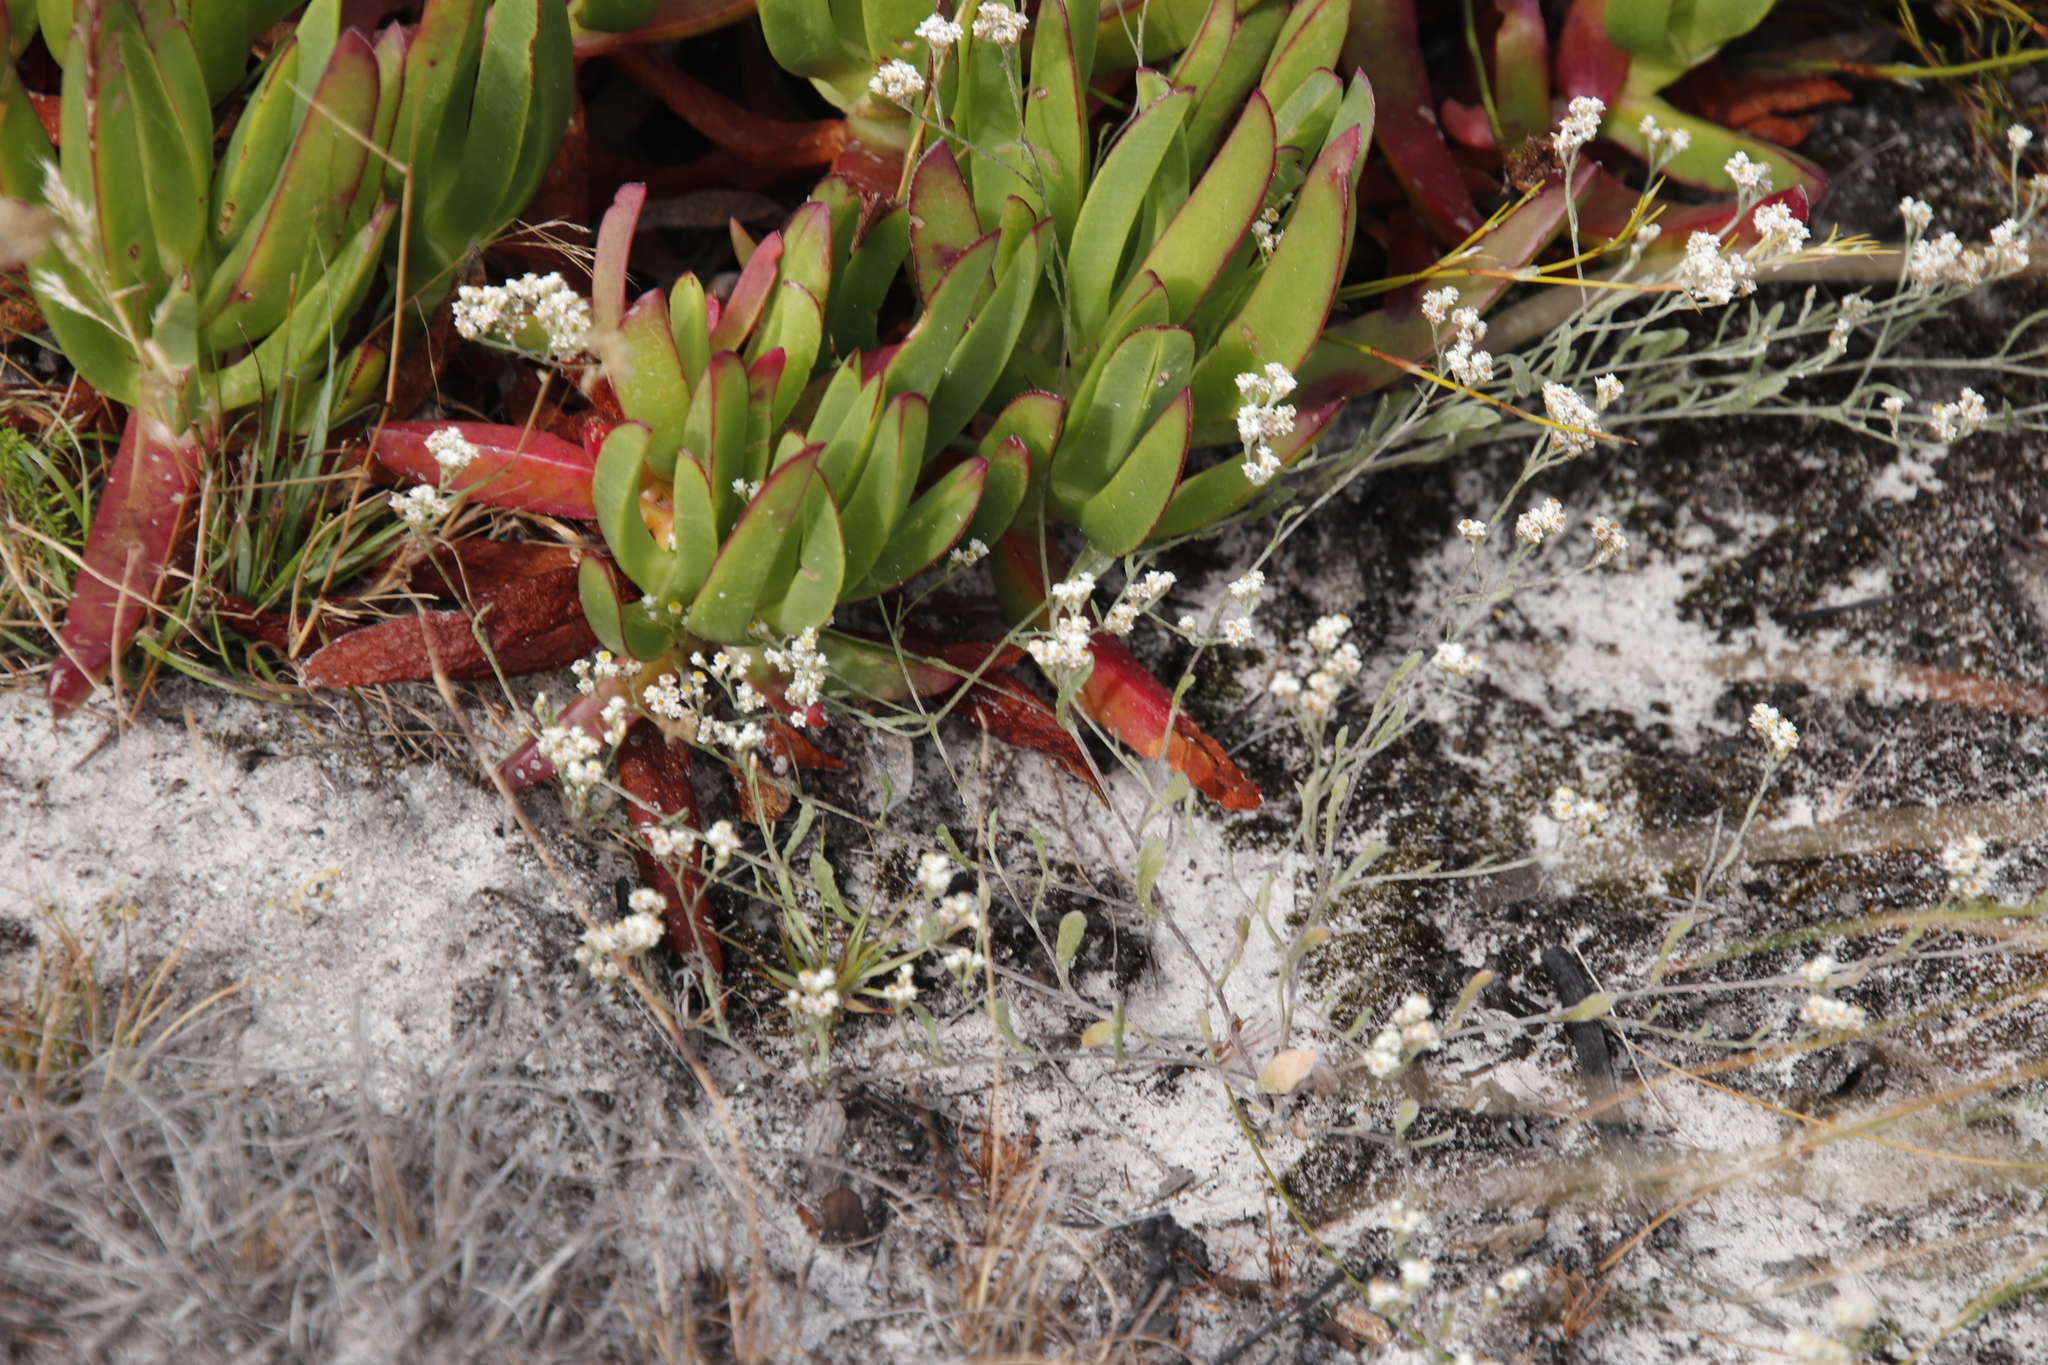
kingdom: Plantae
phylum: Tracheophyta
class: Magnoliopsida
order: Asterales
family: Asteraceae
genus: Helichrysum
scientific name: Helichrysum indicum
